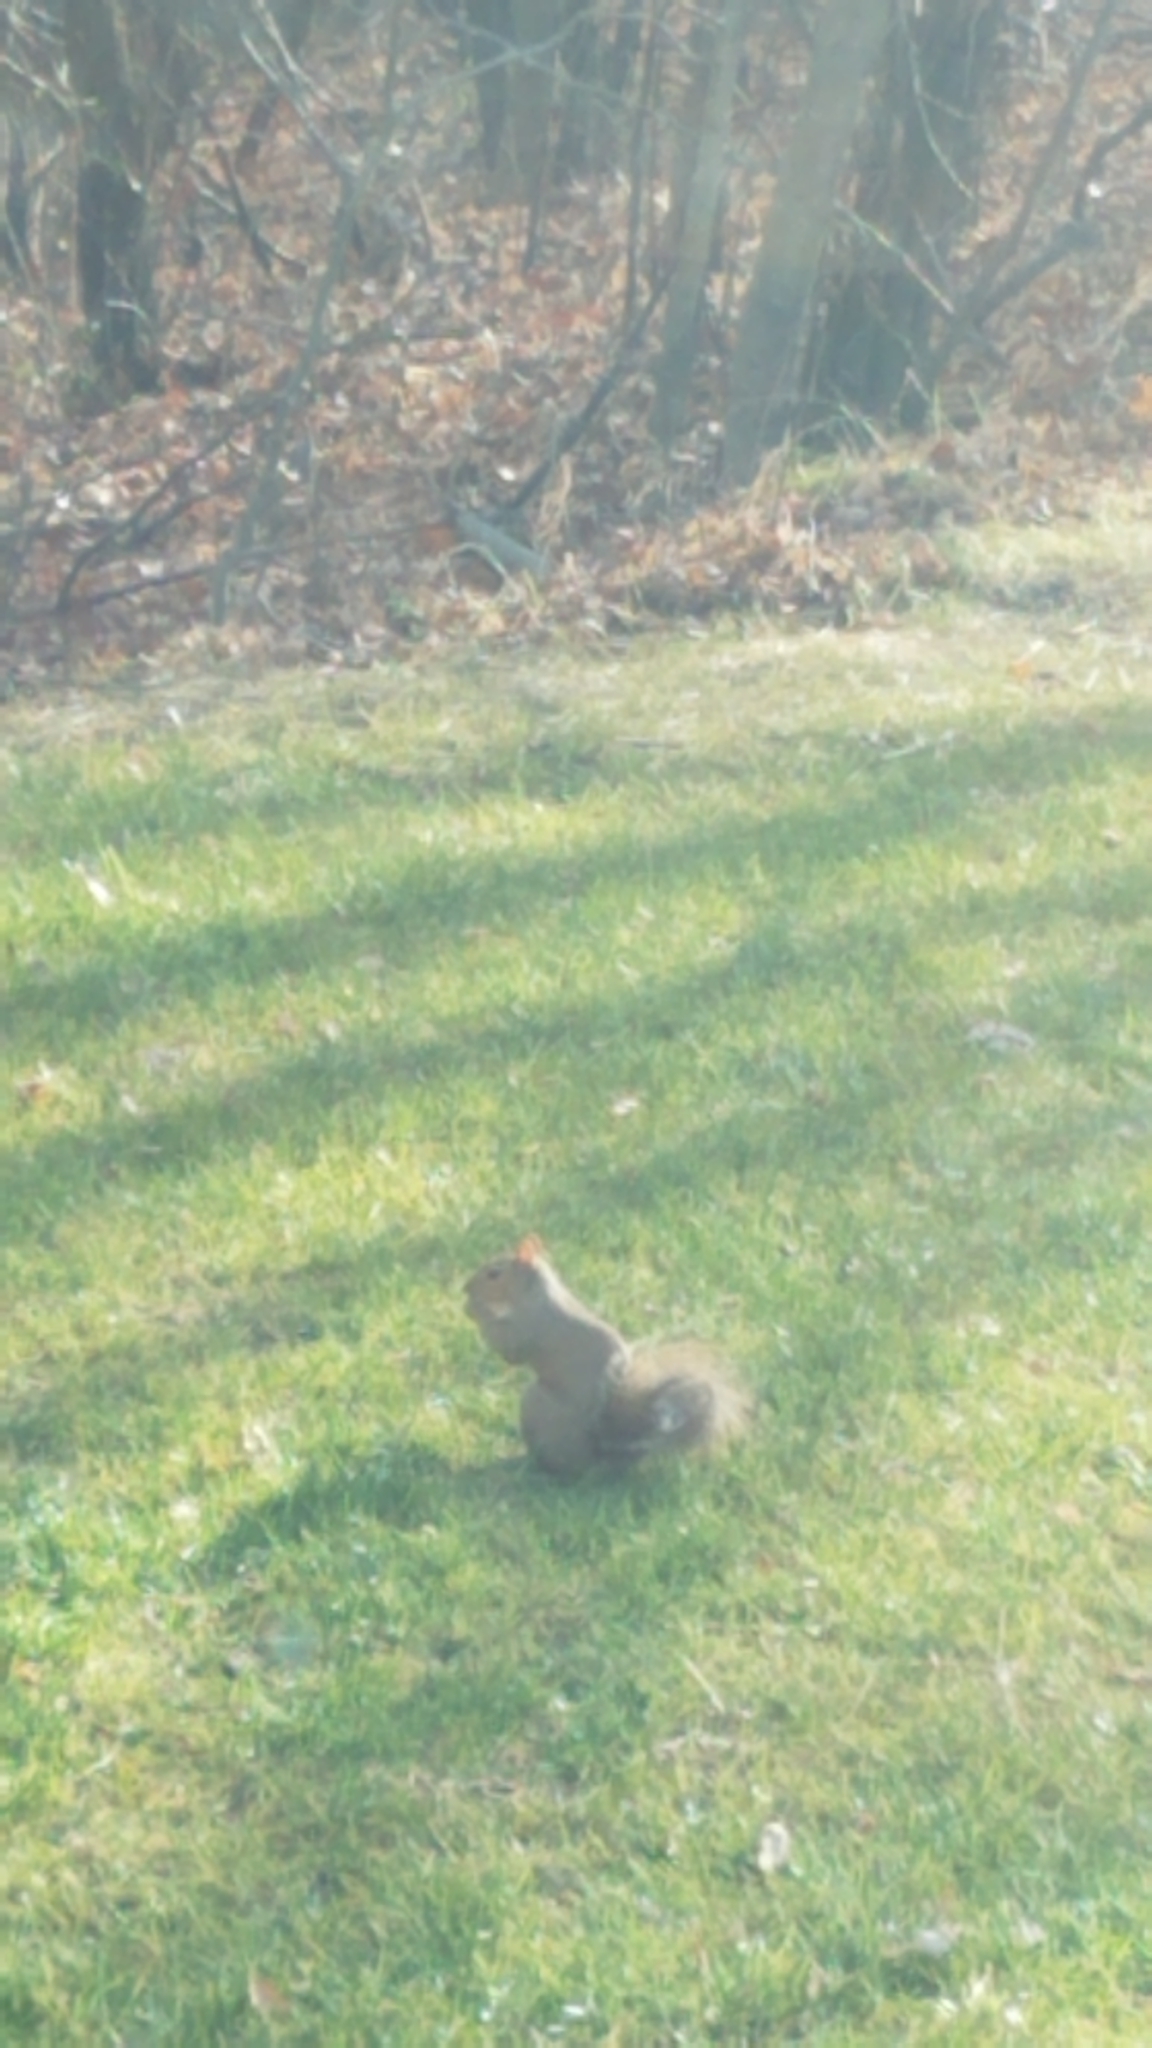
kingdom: Animalia
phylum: Chordata
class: Mammalia
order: Rodentia
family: Sciuridae
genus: Sciurus
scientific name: Sciurus carolinensis
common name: Eastern gray squirrel
